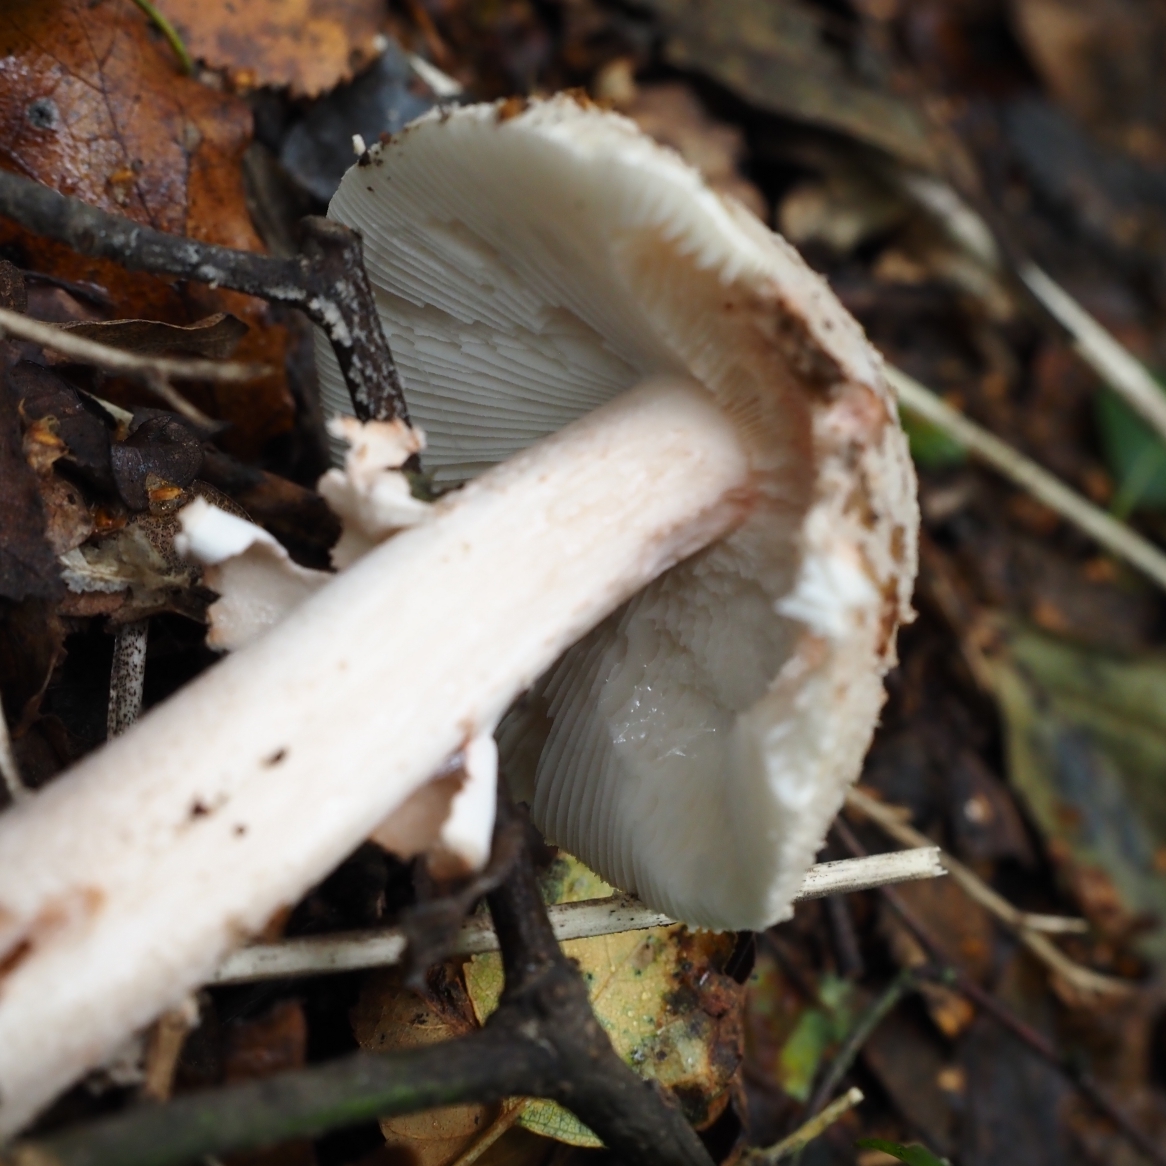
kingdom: Fungi
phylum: Basidiomycota
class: Agaricomycetes
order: Agaricales
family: Amanitaceae
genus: Amanita
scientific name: Amanita rubescens
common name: Blusher
